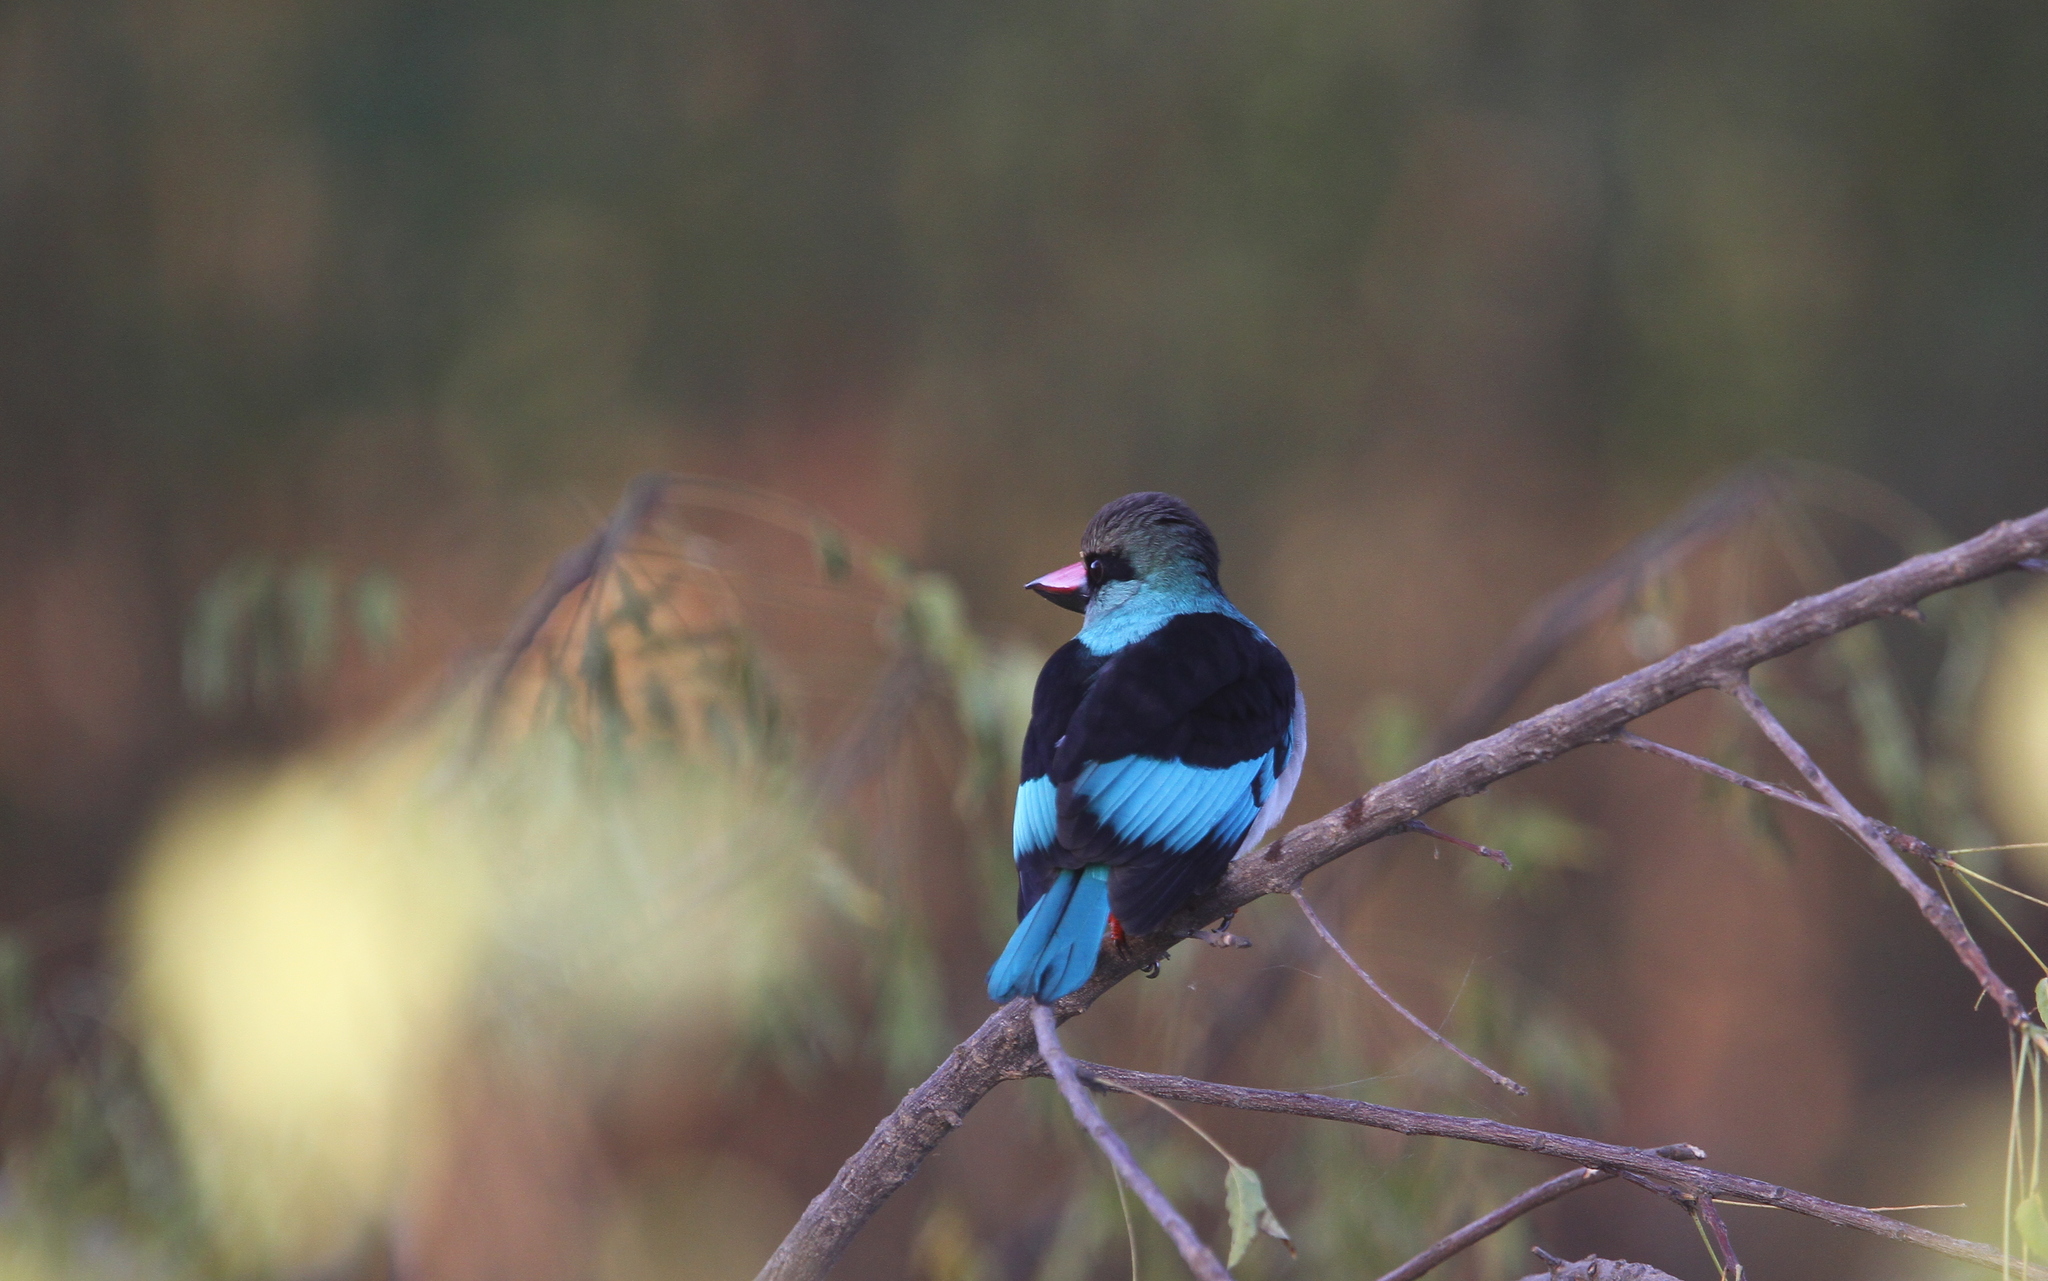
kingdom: Animalia
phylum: Chordata
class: Aves
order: Coraciiformes
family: Alcedinidae
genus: Halcyon
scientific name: Halcyon malimbica
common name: Blue-breasted kingfisher
